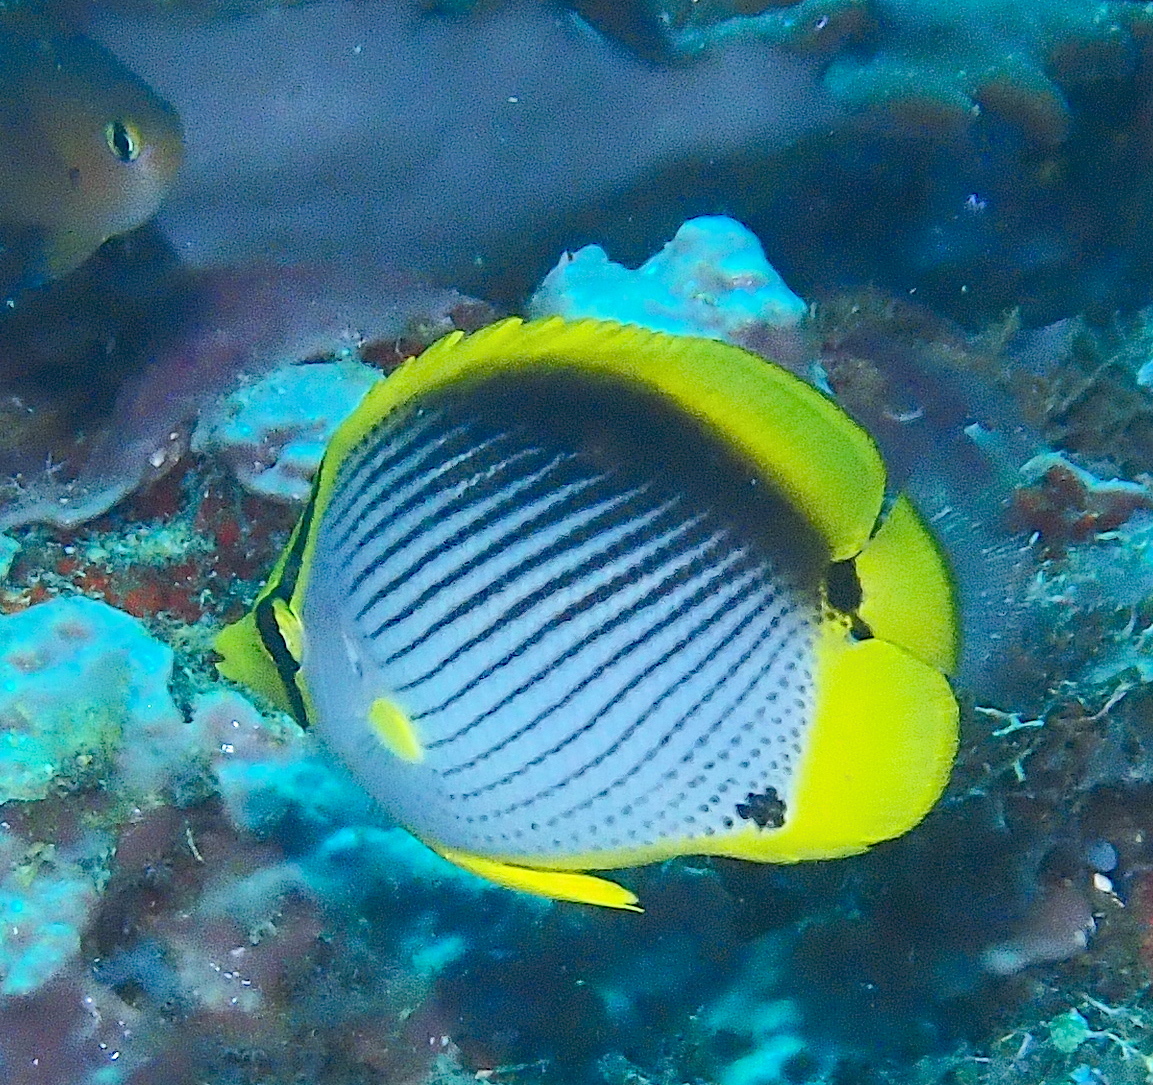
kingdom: Animalia
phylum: Chordata
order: Perciformes
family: Chaetodontidae
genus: Chaetodon
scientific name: Chaetodon melannotus
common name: Blackback butterflyfish
